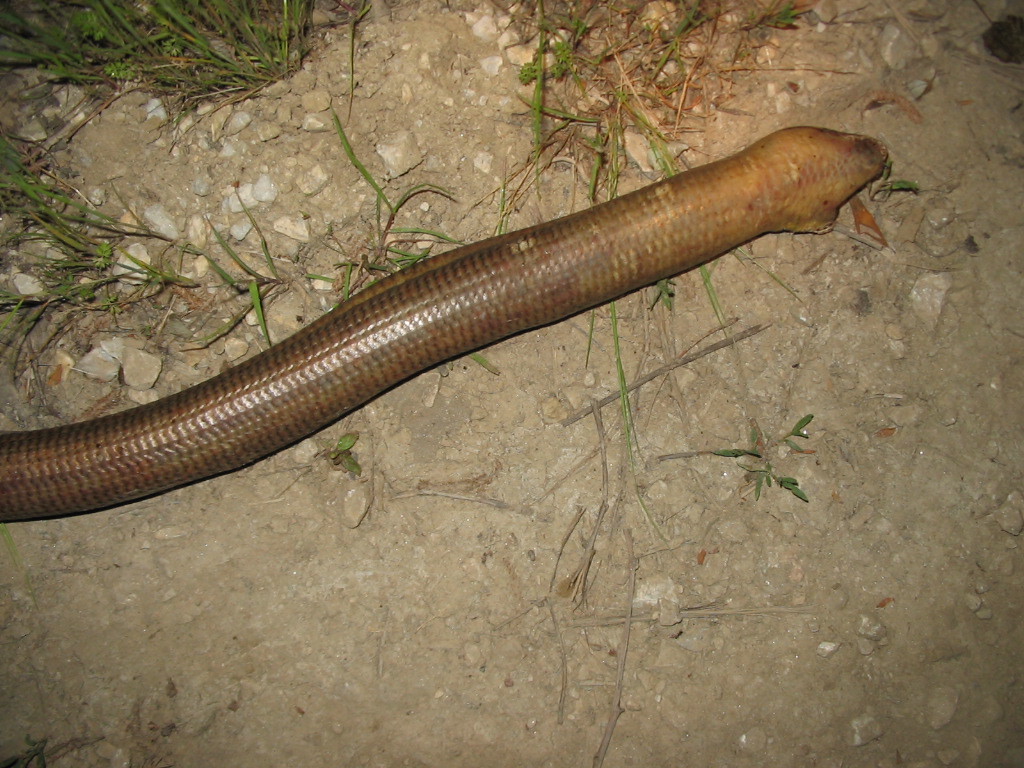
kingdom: Animalia
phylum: Chordata
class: Squamata
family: Anguidae
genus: Pseudopus
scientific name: Pseudopus apodus
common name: European glass lizard
